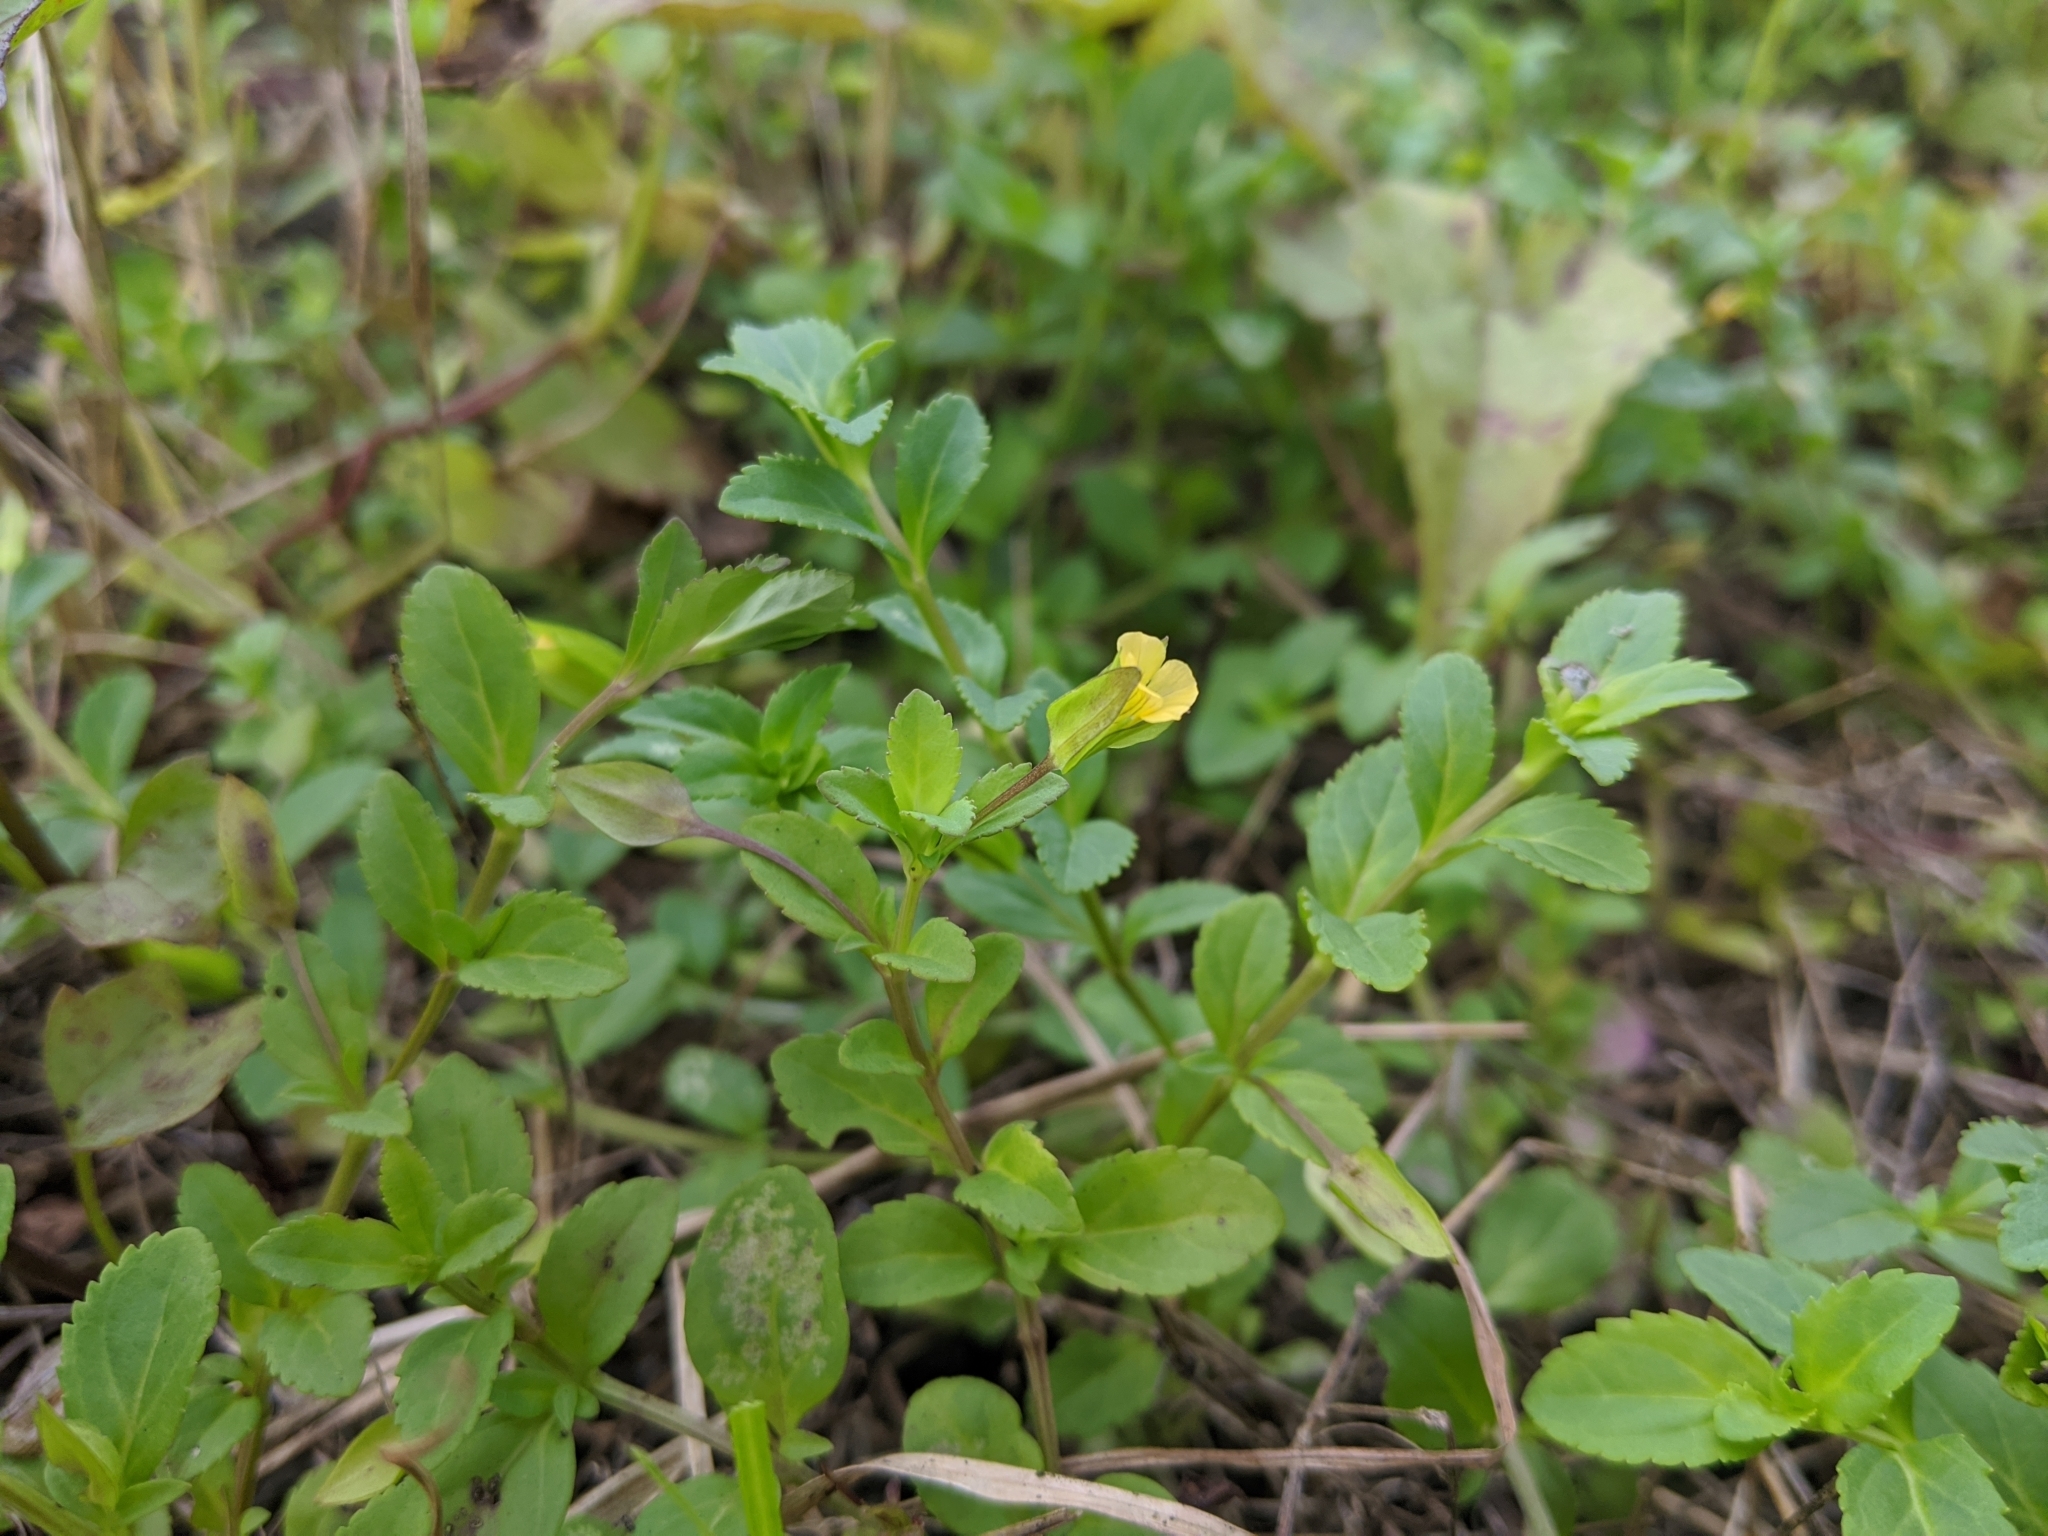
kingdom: Plantae
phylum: Tracheophyta
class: Magnoliopsida
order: Lamiales
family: Plantaginaceae
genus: Mecardonia
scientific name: Mecardonia procumbens
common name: Baby jump-up
